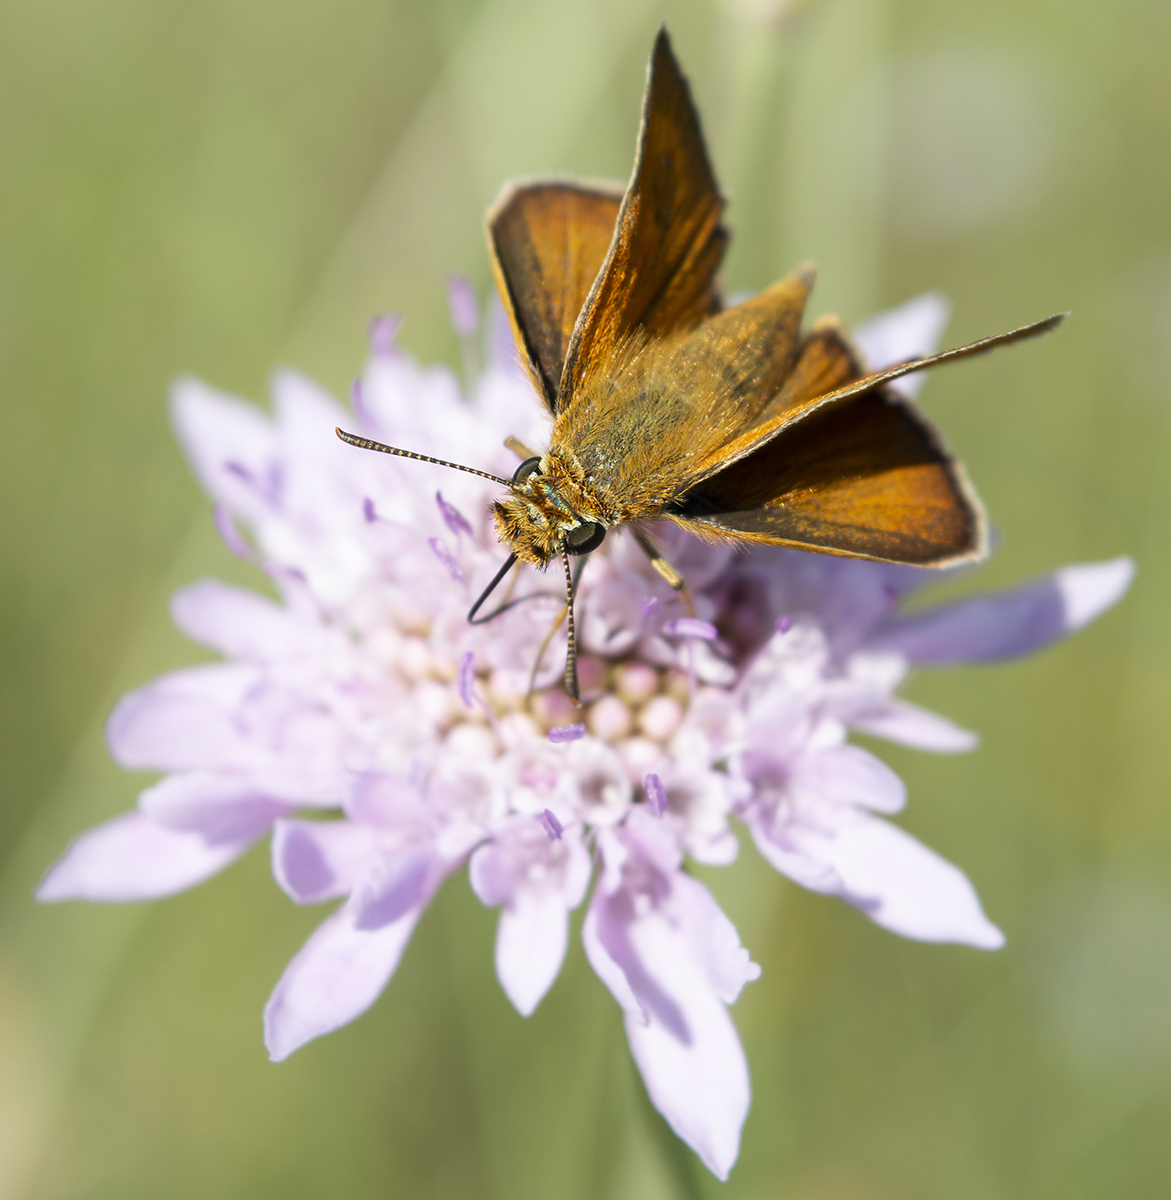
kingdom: Animalia
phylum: Arthropoda
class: Insecta
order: Lepidoptera
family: Hesperiidae
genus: Thymelicus
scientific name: Thymelicus acteon
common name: Lulworth skipper
